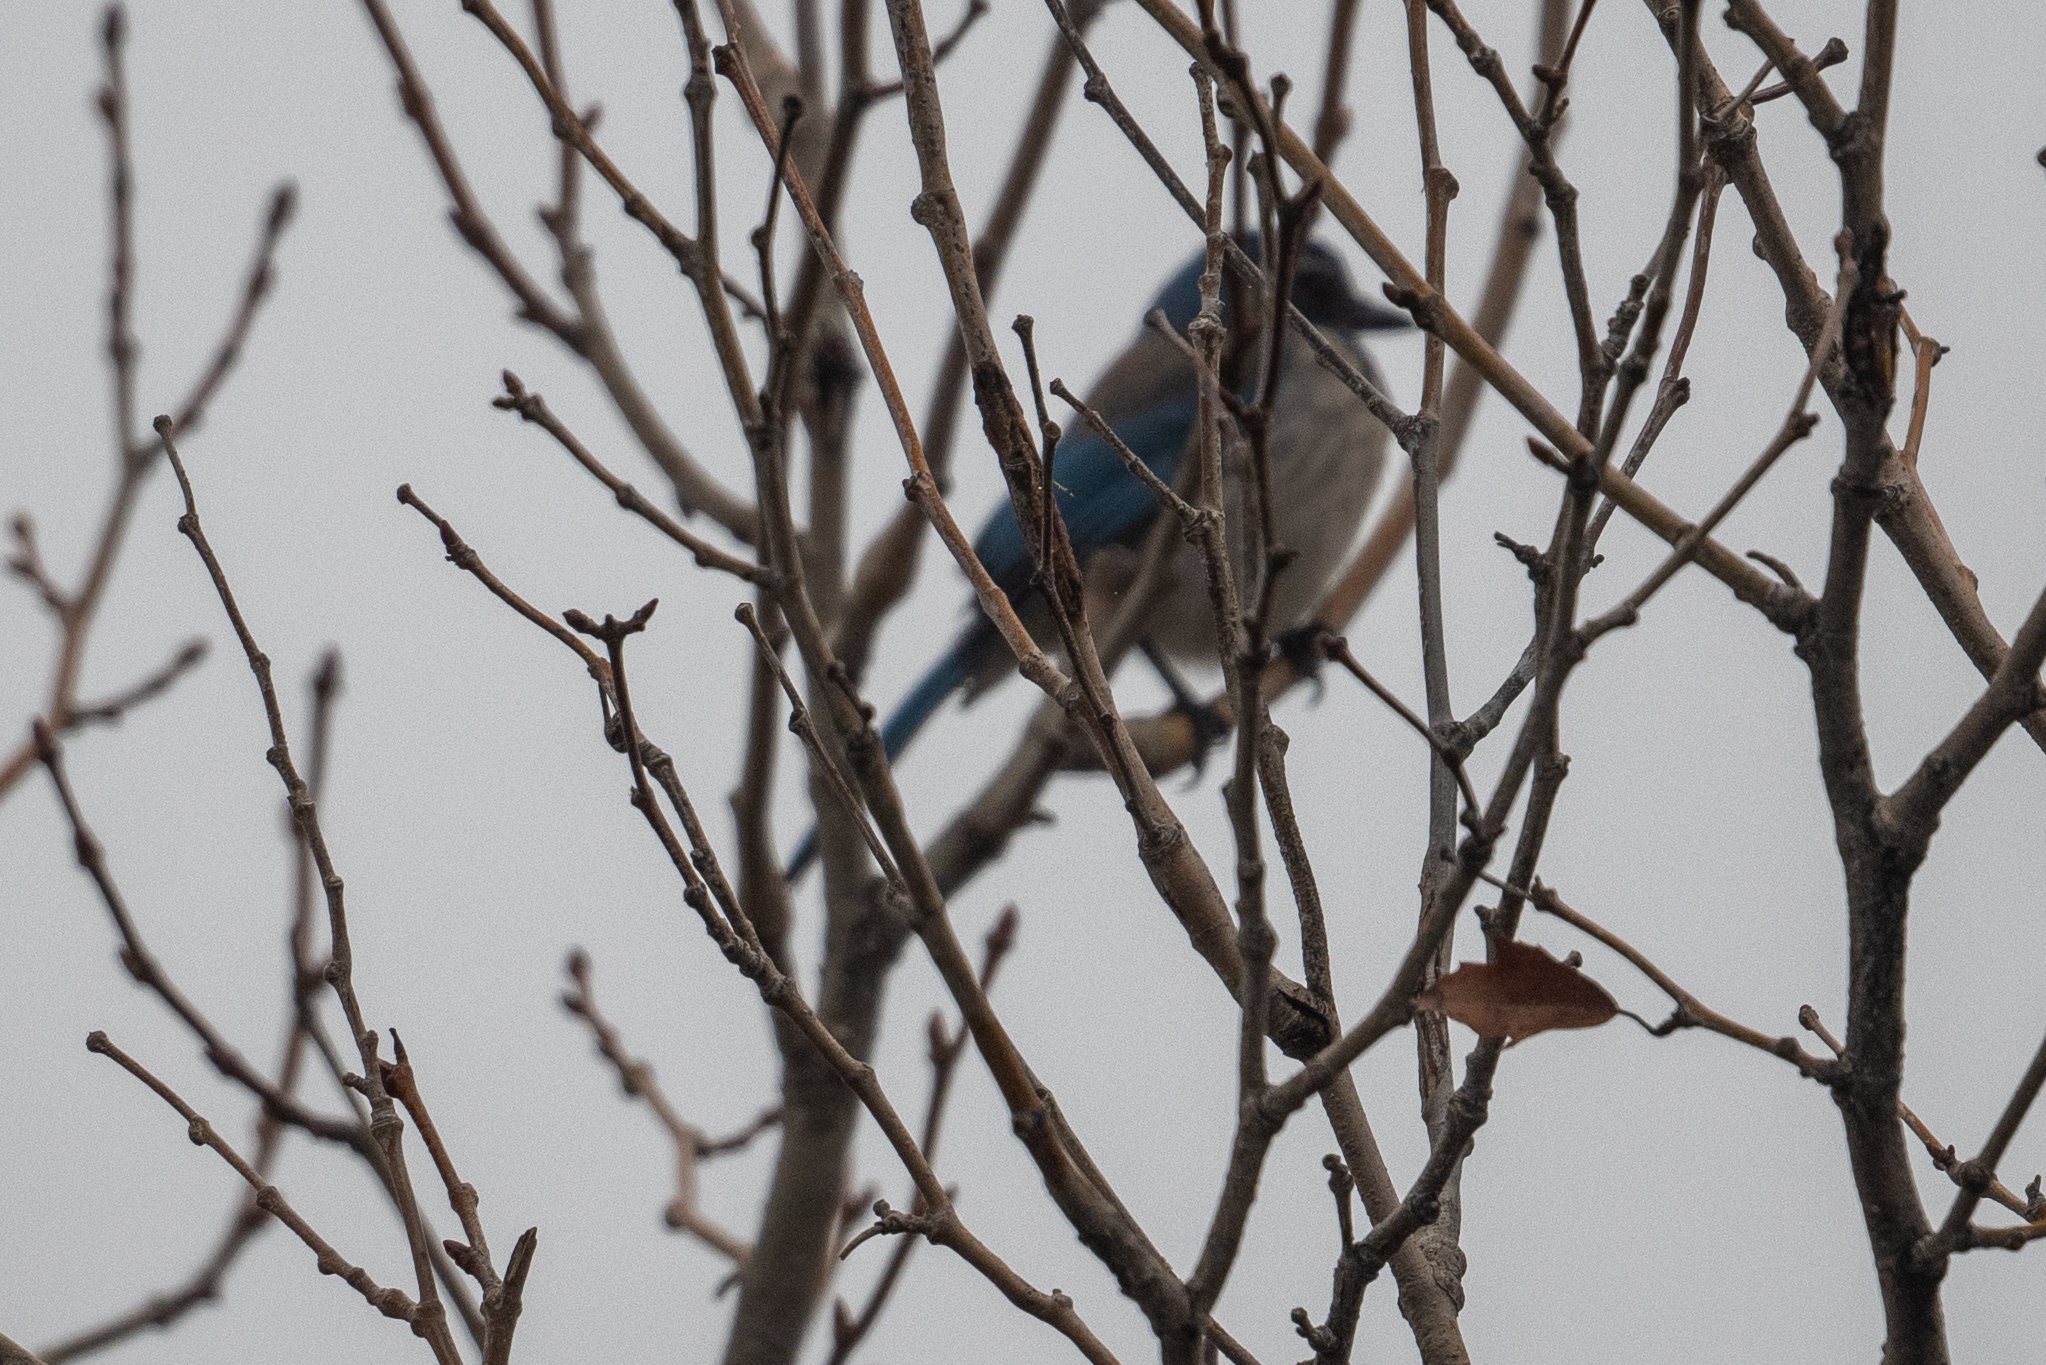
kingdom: Animalia
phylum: Chordata
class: Aves
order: Passeriformes
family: Corvidae
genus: Aphelocoma
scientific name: Aphelocoma californica
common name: California scrub-jay
